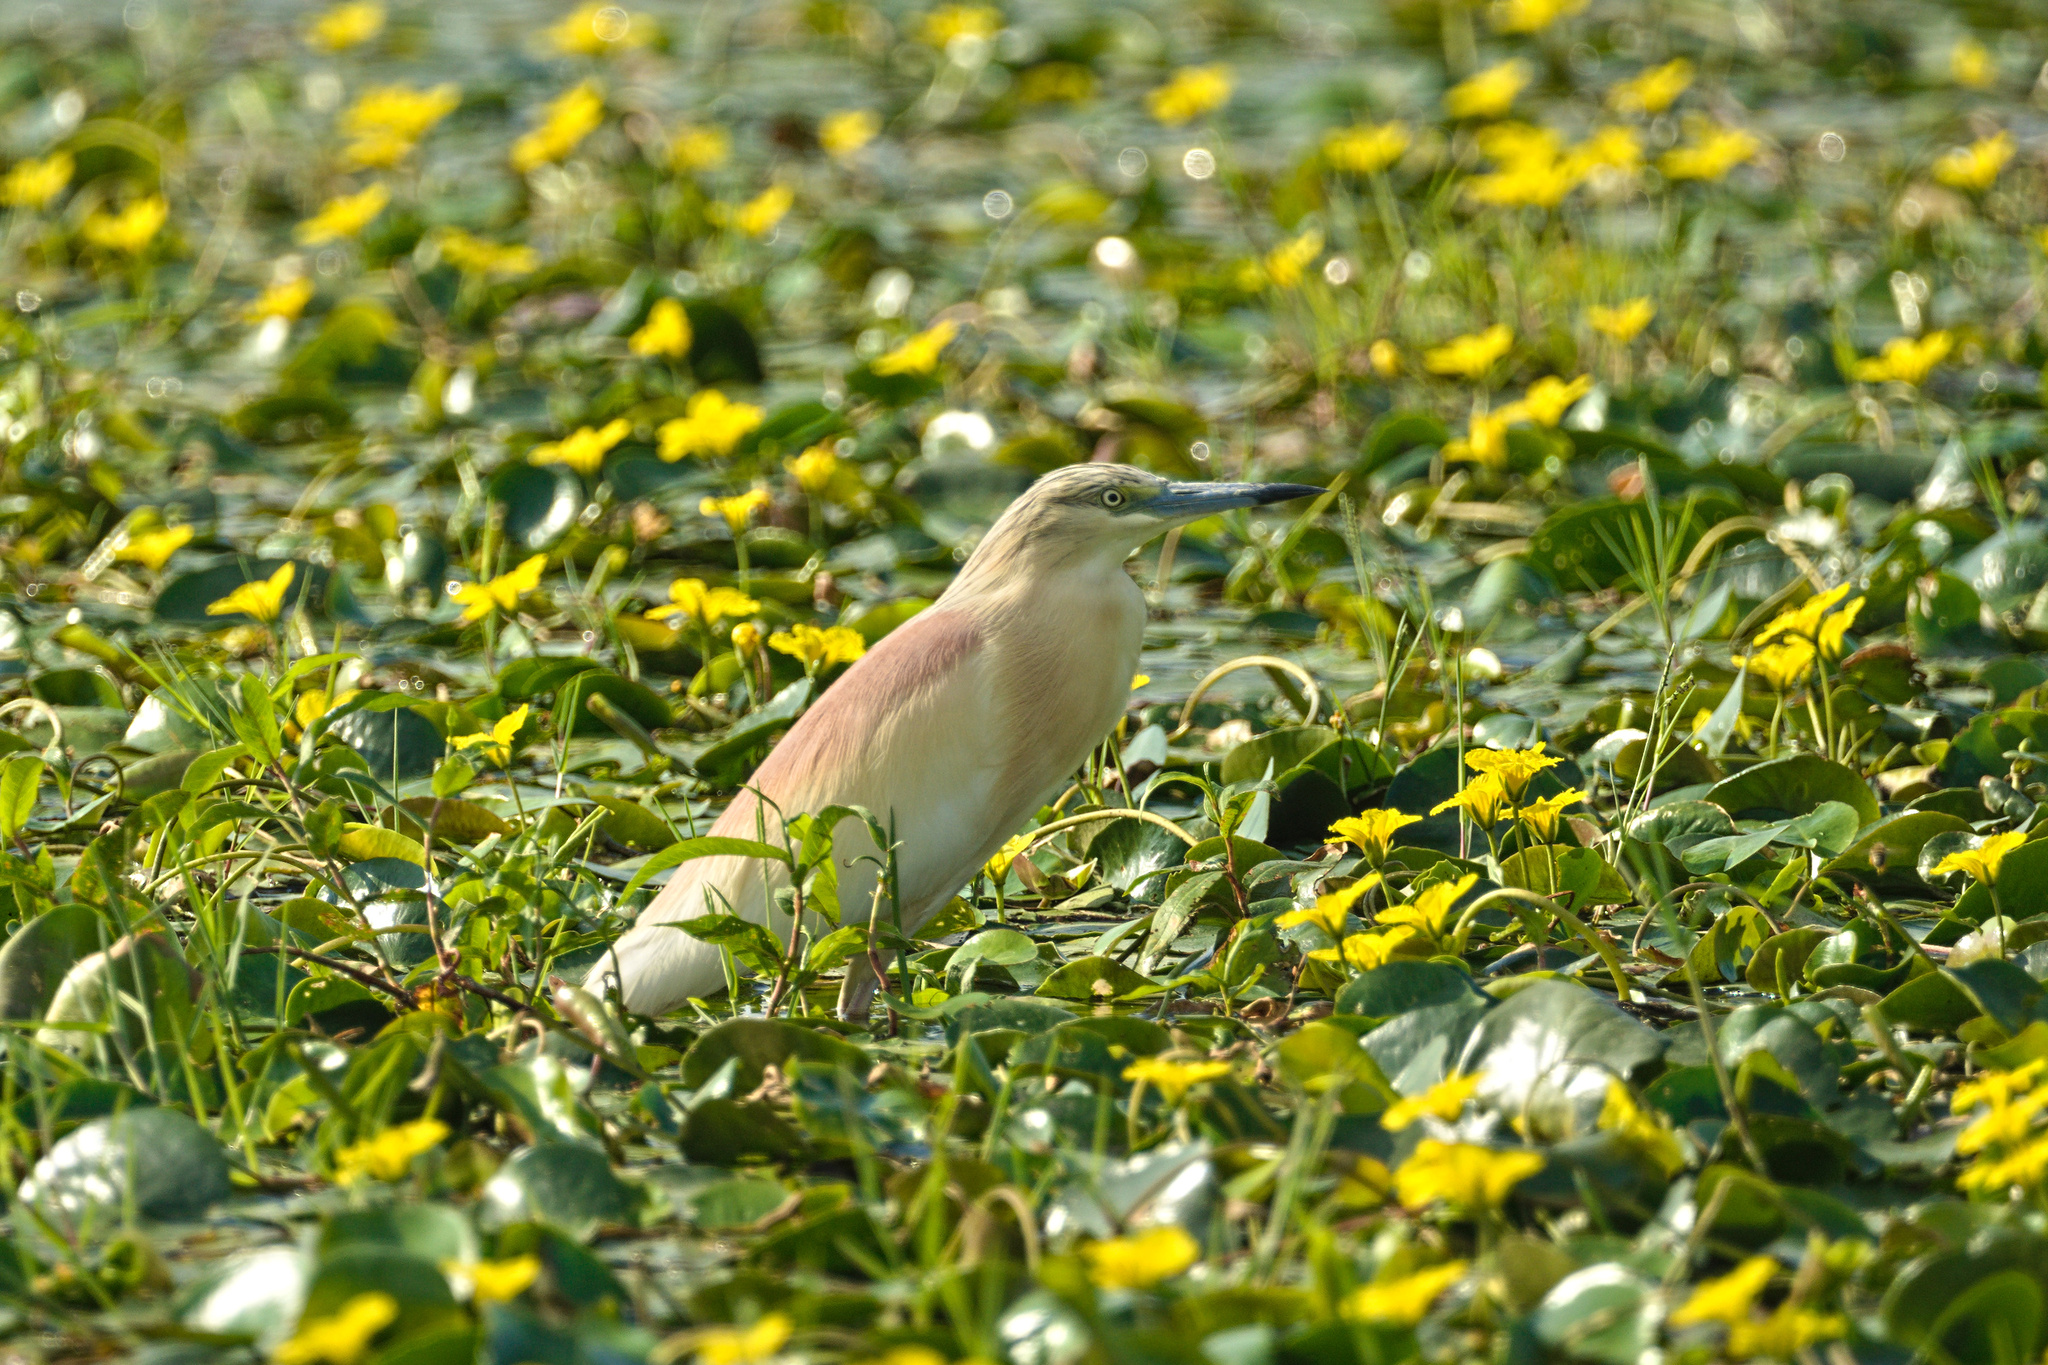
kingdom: Animalia
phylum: Chordata
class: Aves
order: Pelecaniformes
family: Ardeidae
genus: Ardeola
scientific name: Ardeola ralloides
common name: Squacco heron
